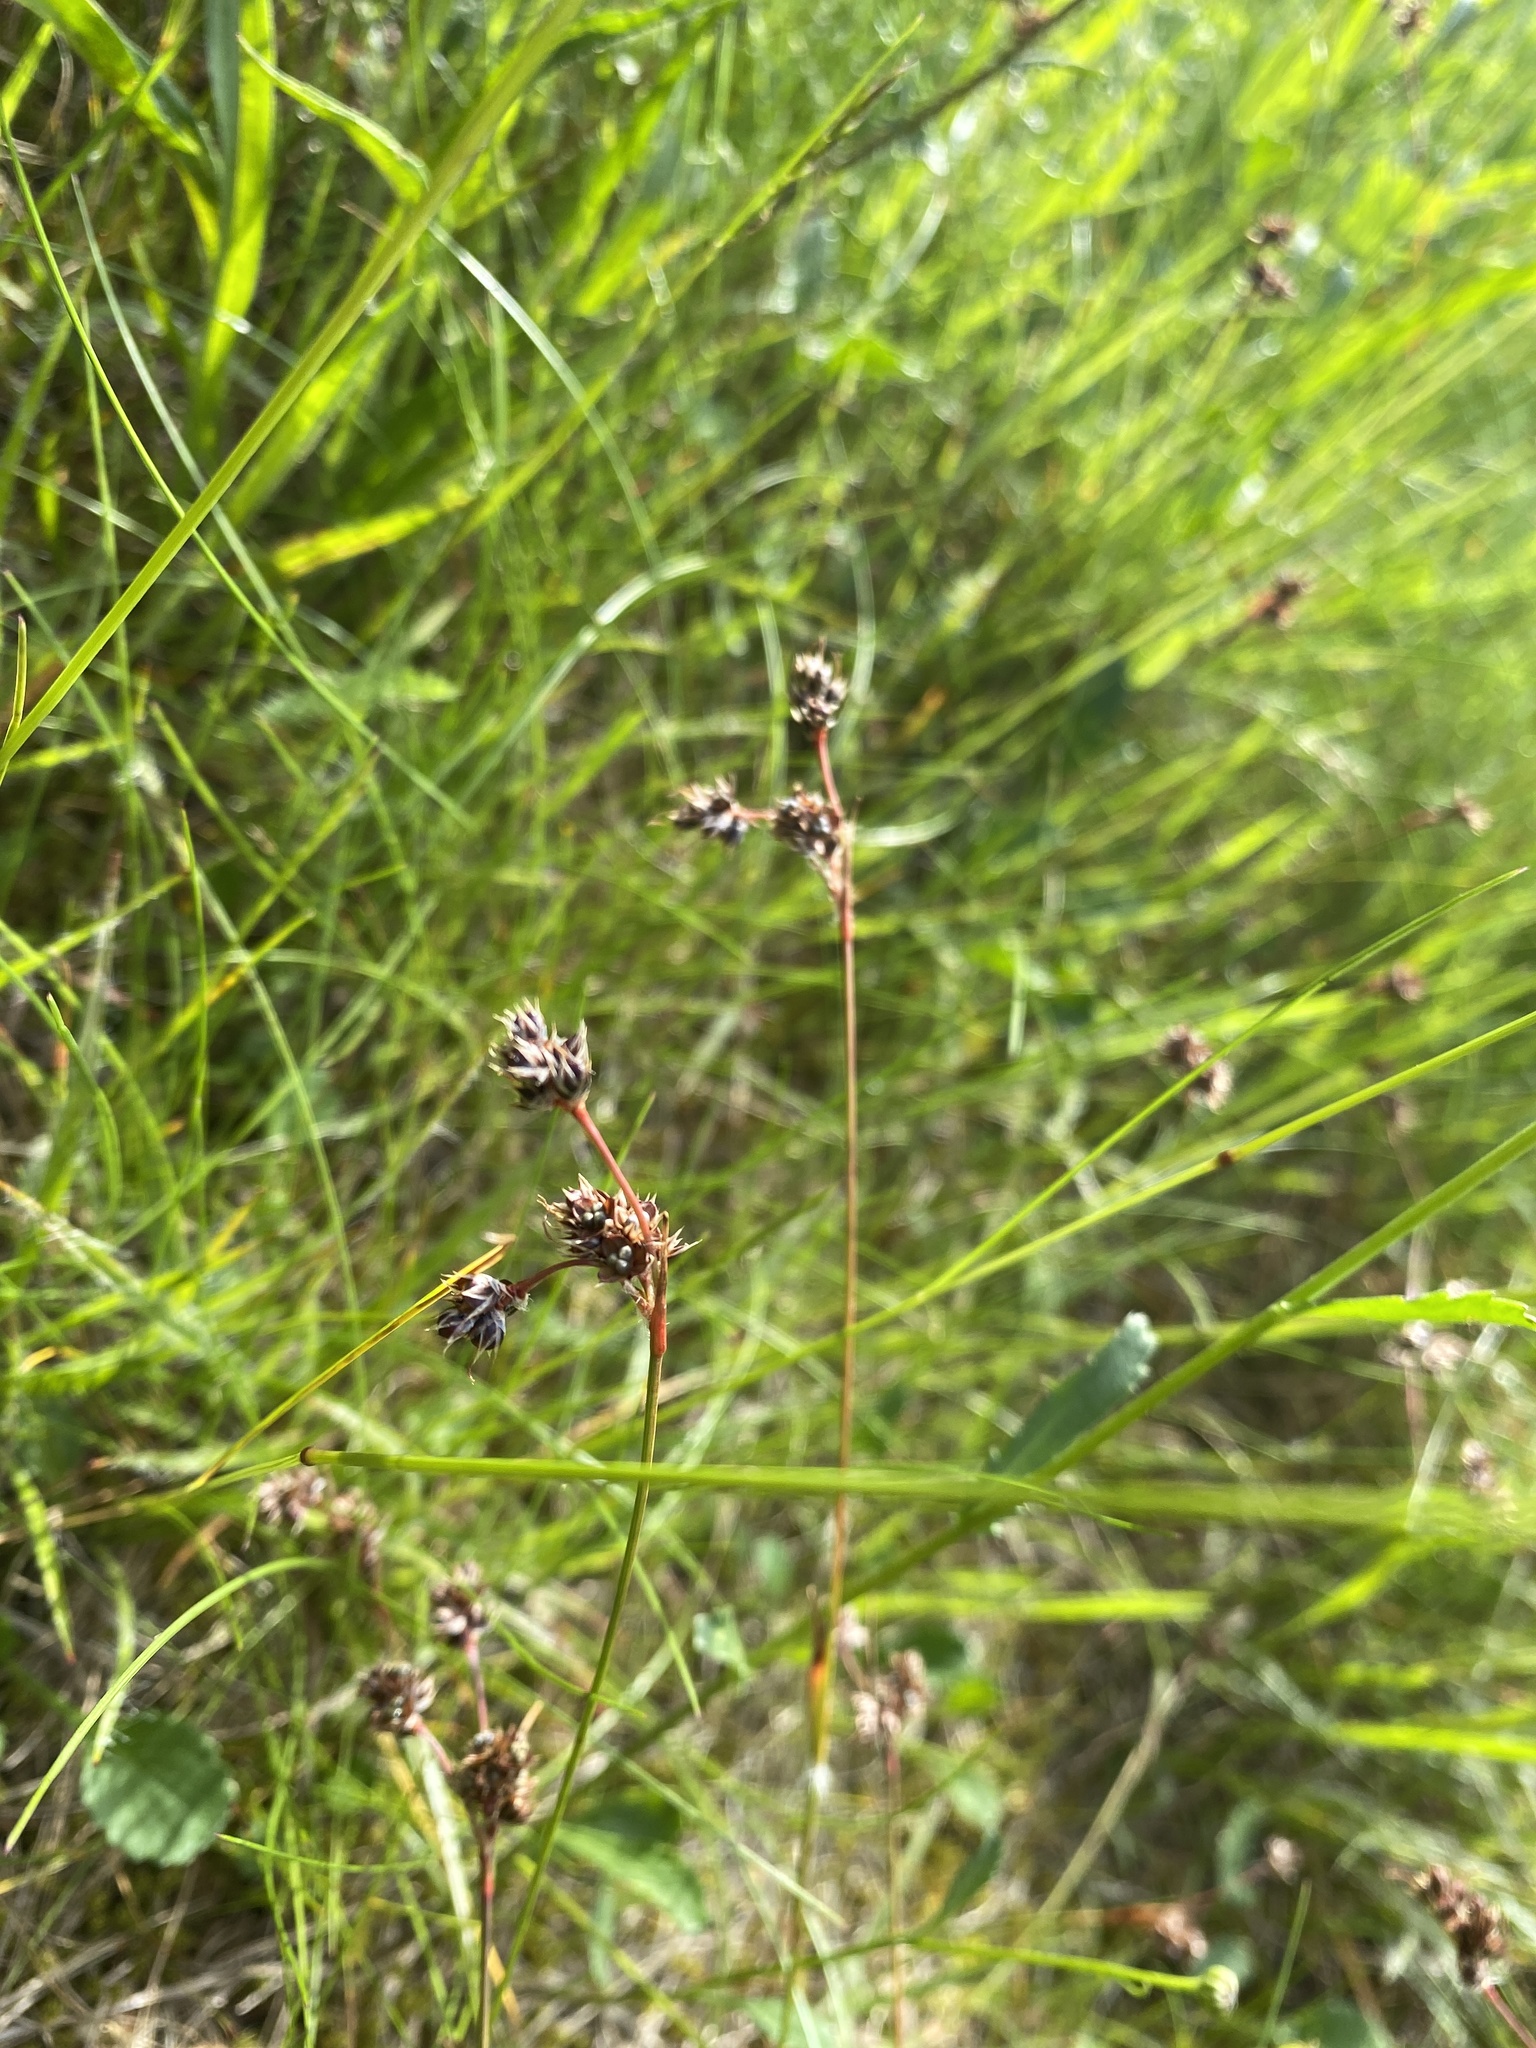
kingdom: Plantae
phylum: Tracheophyta
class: Liliopsida
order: Poales
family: Juncaceae
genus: Luzula
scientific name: Luzula campestris
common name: Field wood-rush
